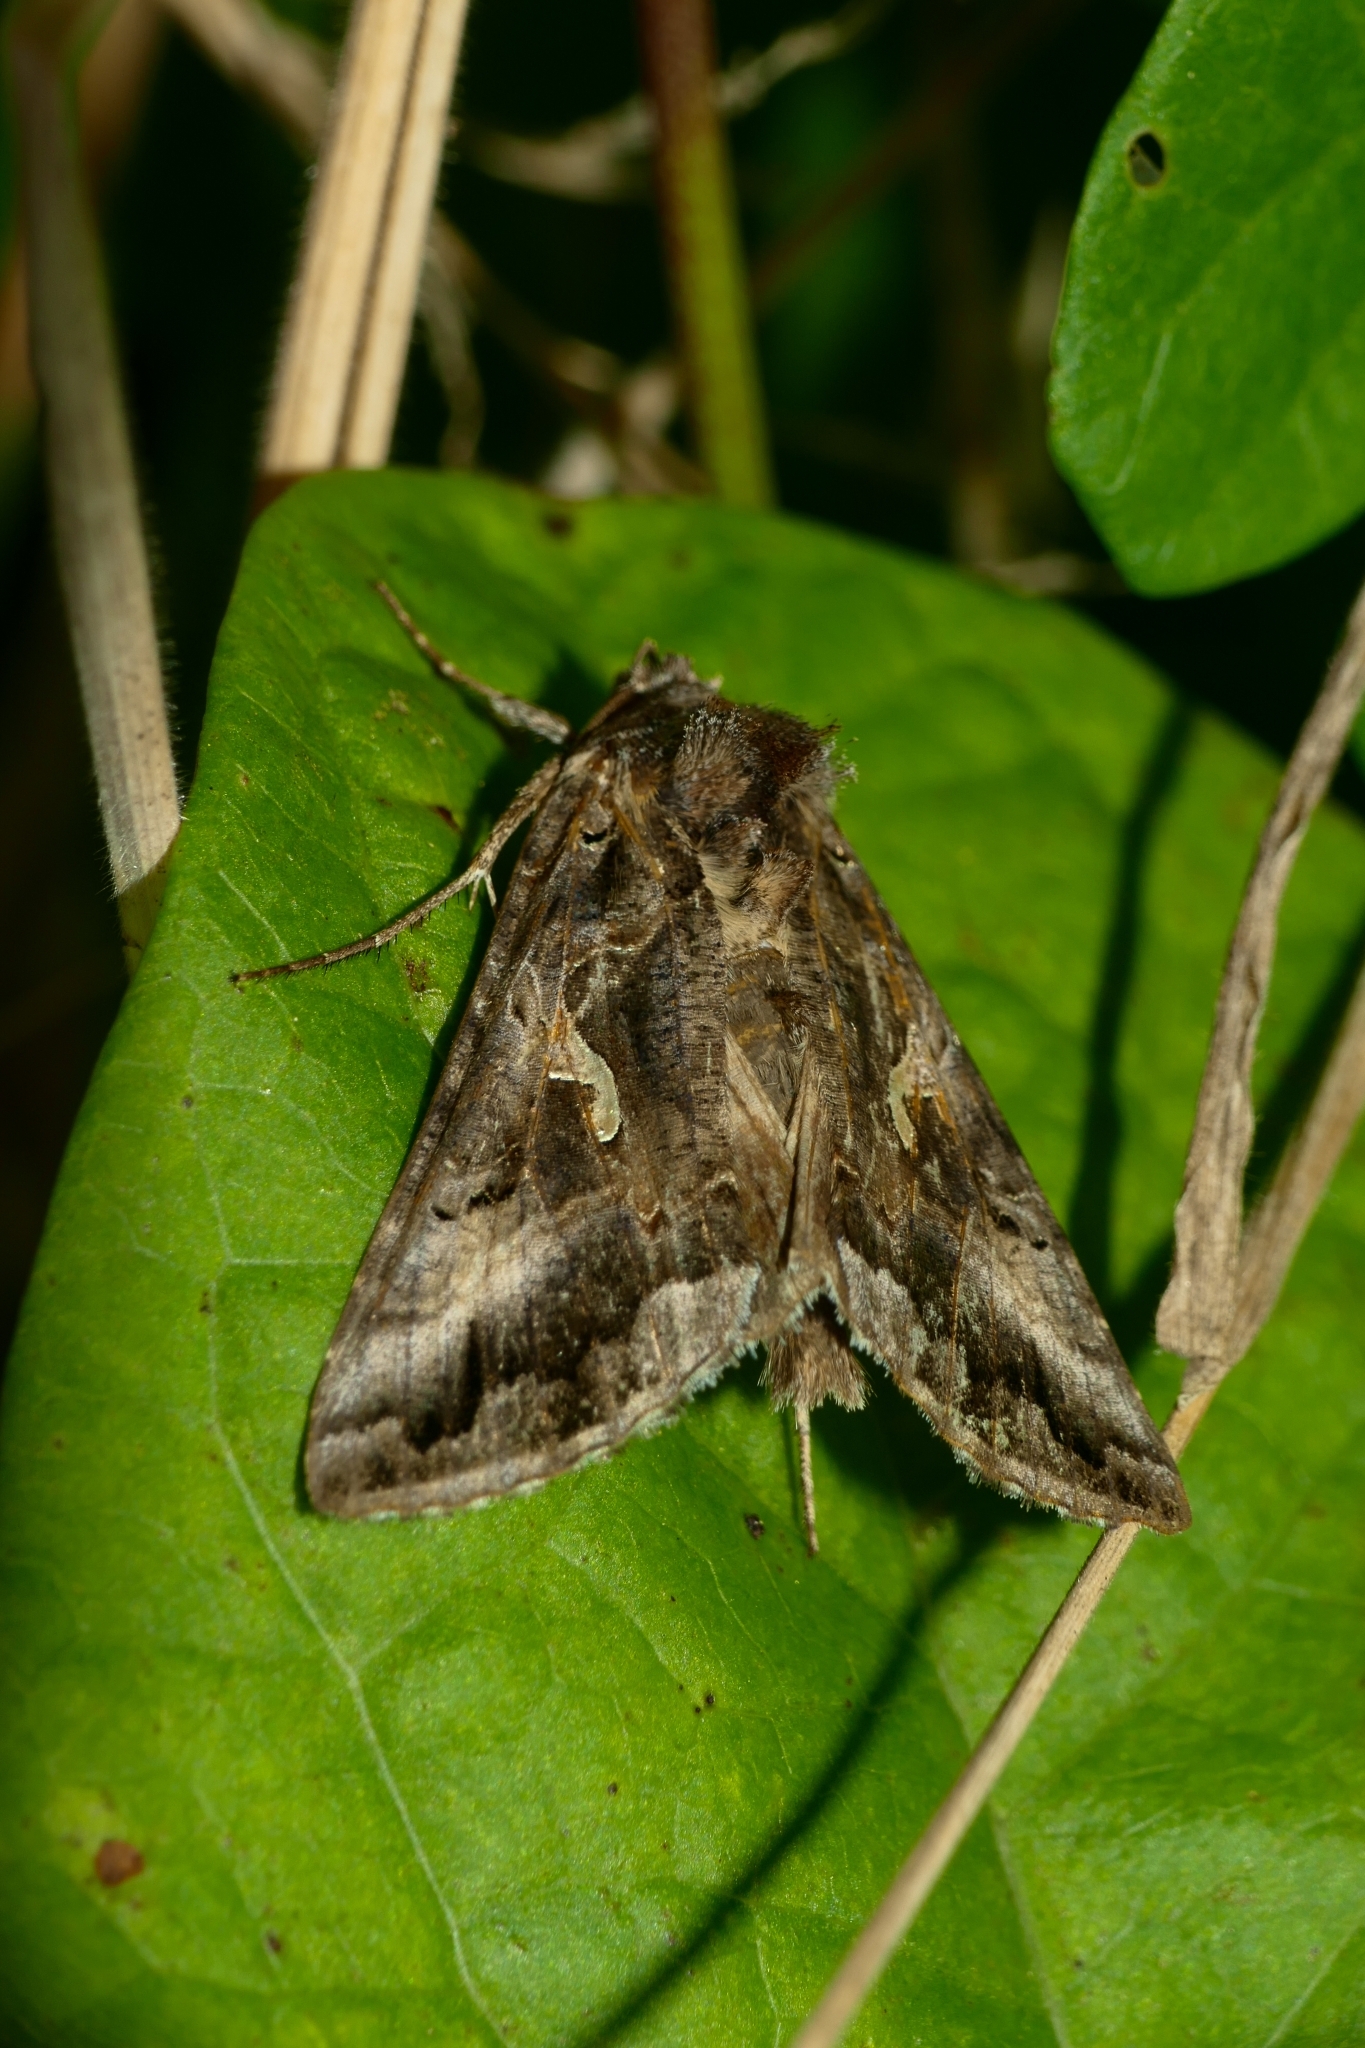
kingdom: Animalia
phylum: Arthropoda
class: Insecta
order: Lepidoptera
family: Noctuidae
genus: Autographa
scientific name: Autographa gamma
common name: Silver y
